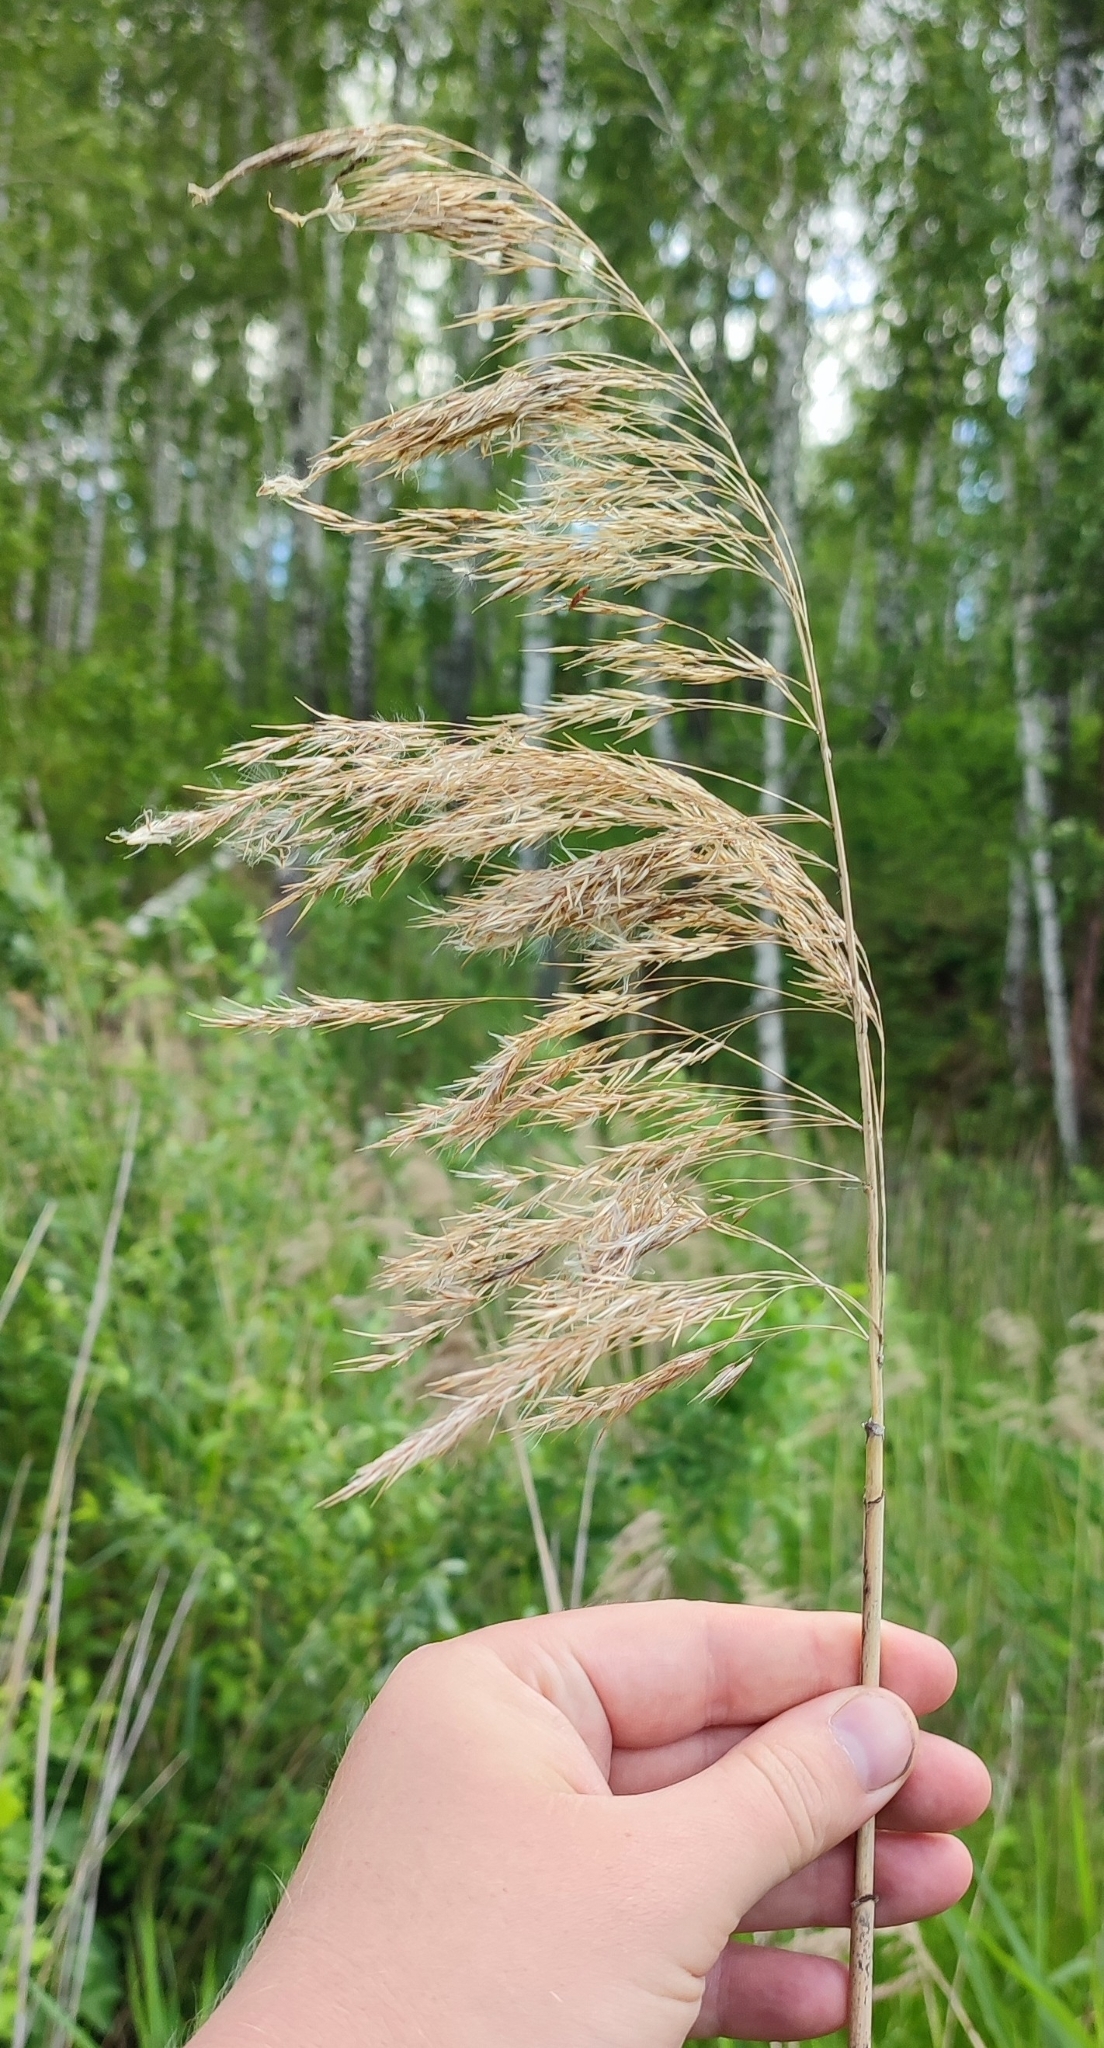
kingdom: Plantae
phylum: Tracheophyta
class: Liliopsida
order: Poales
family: Poaceae
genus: Phragmites
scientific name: Phragmites australis
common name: Common reed
